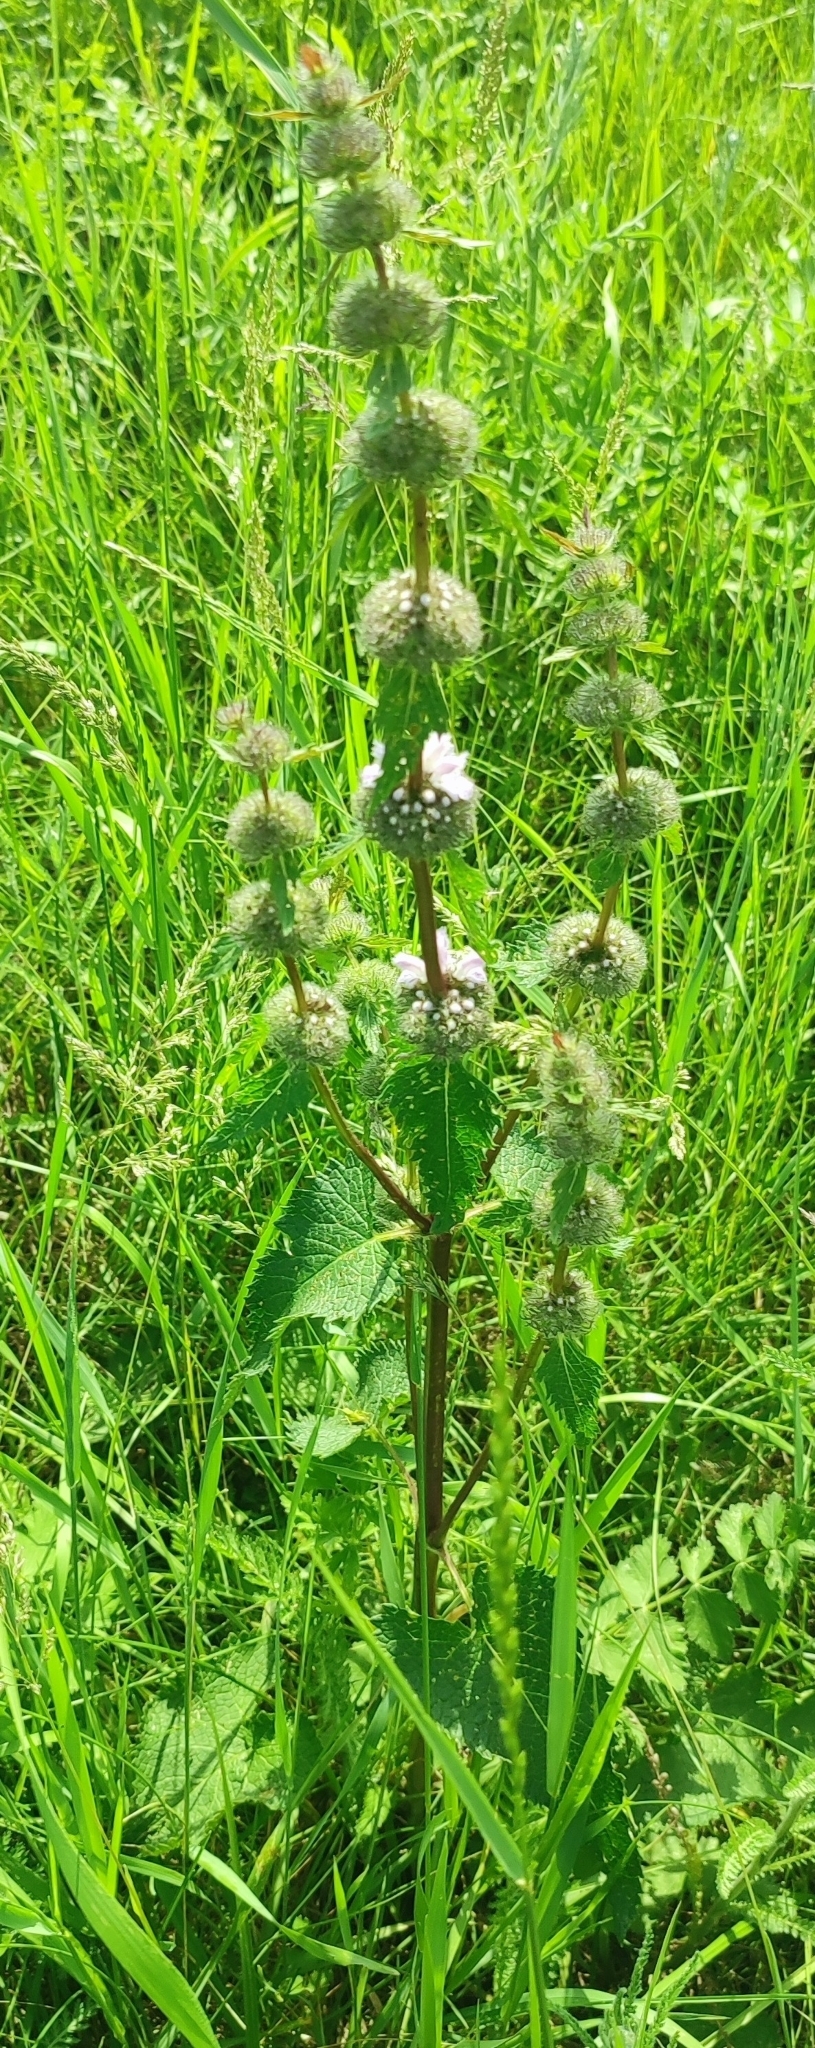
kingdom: Plantae
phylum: Tracheophyta
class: Magnoliopsida
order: Lamiales
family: Lamiaceae
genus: Phlomoides
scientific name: Phlomoides tuberosa
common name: Tuberous jerusalem sage
